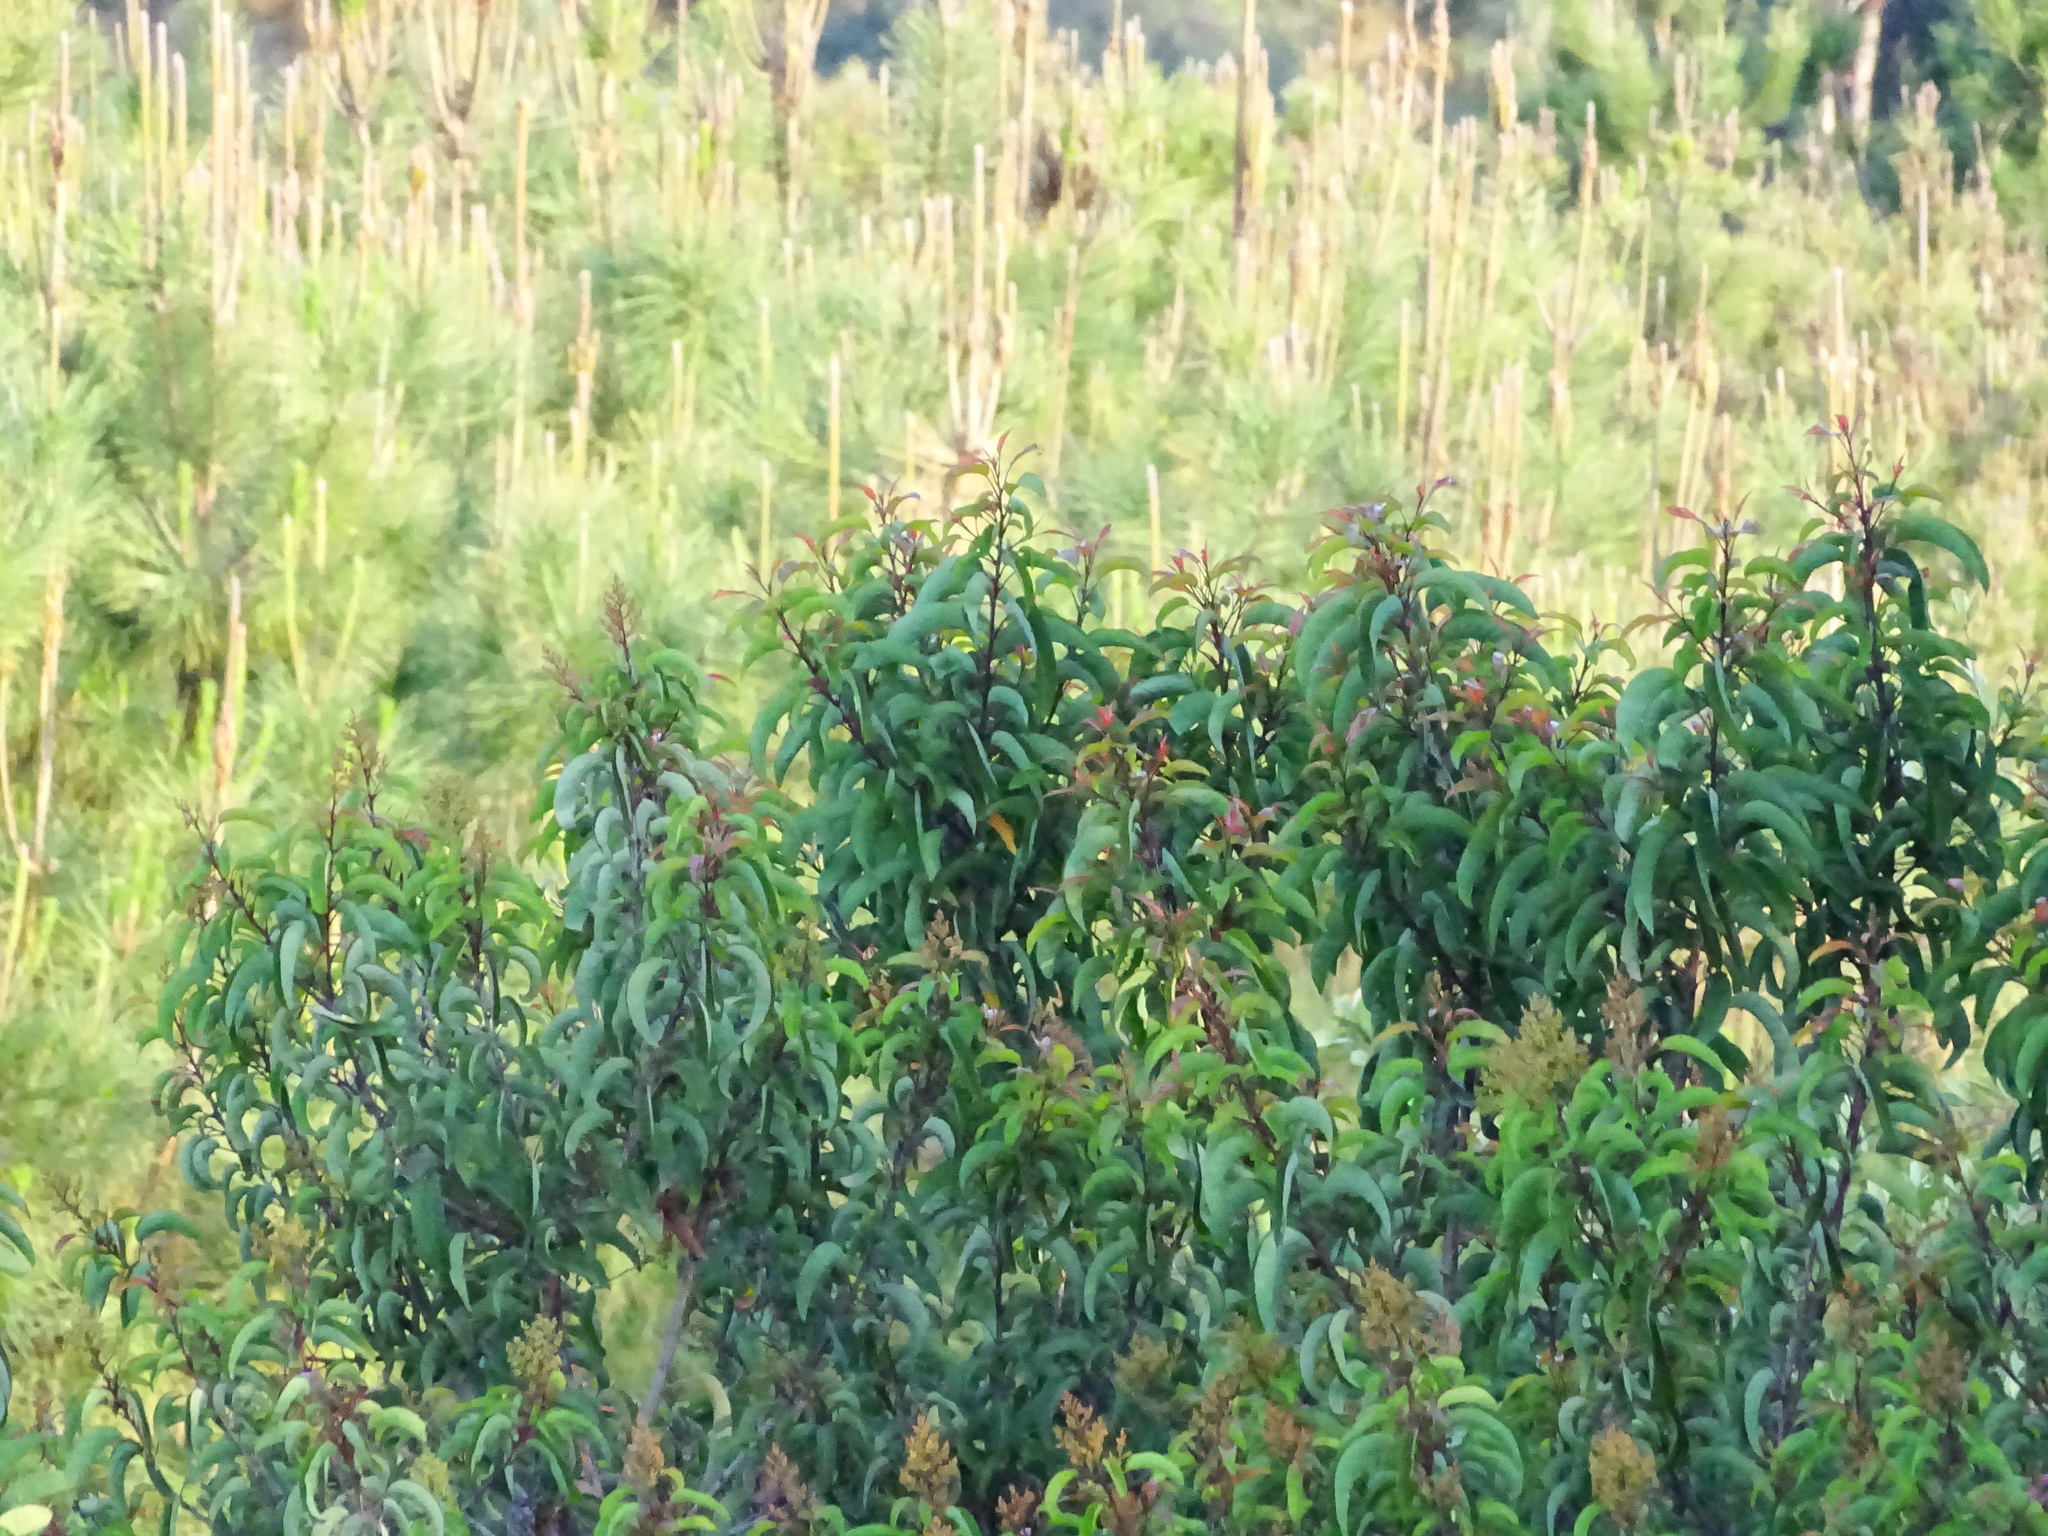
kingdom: Plantae
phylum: Tracheophyta
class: Magnoliopsida
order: Sapindales
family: Anacardiaceae
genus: Malosma
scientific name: Malosma laurina
